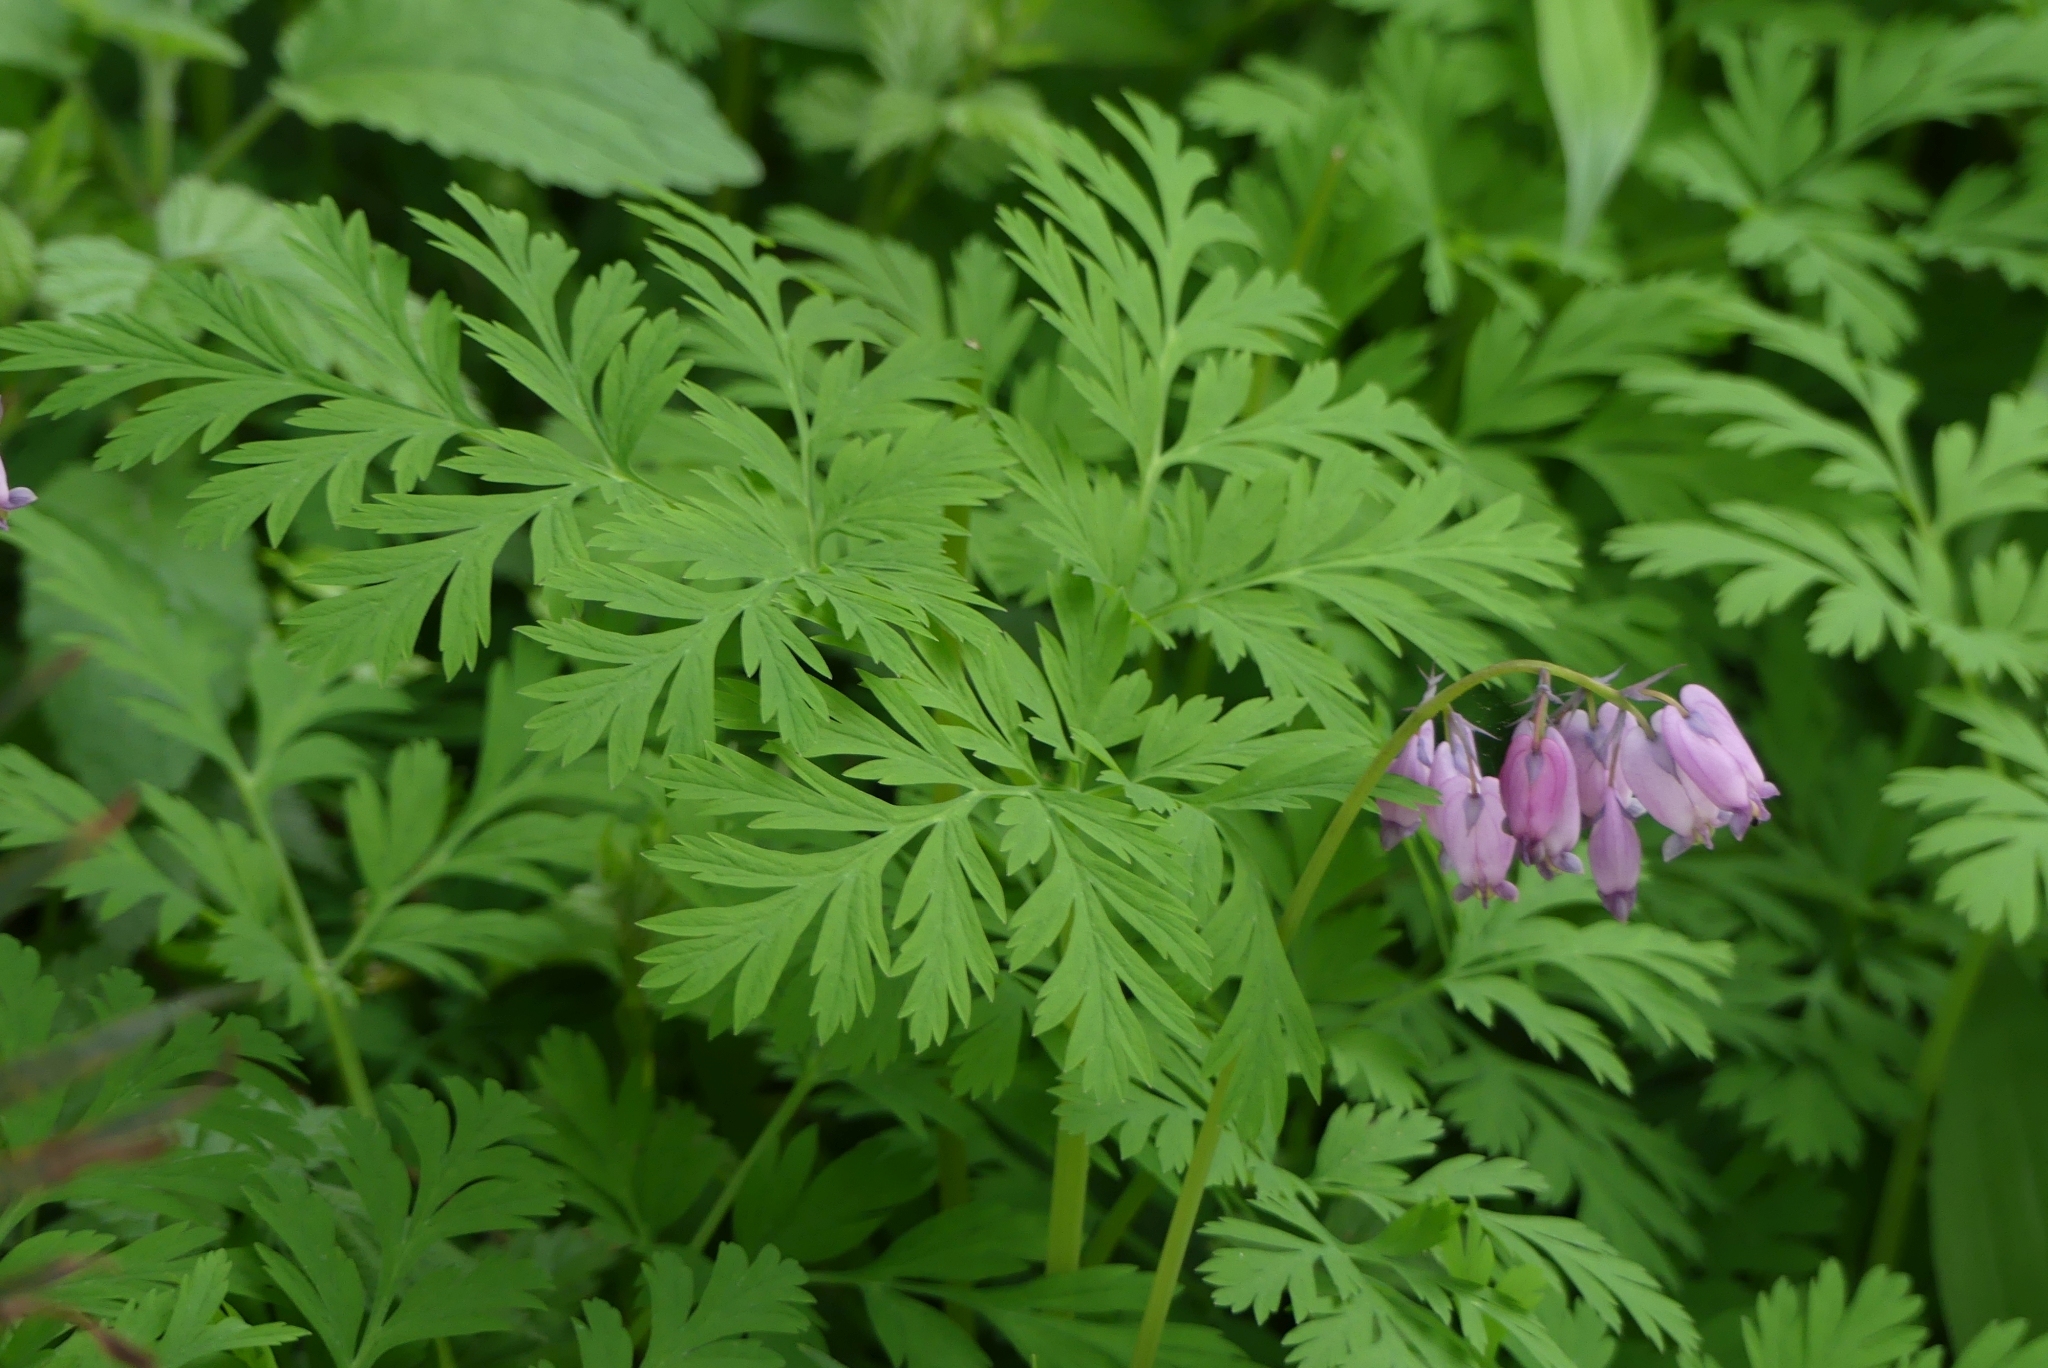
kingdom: Plantae
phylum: Tracheophyta
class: Magnoliopsida
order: Ranunculales
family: Papaveraceae
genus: Dicentra
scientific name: Dicentra formosa
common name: Bleeding-heart
